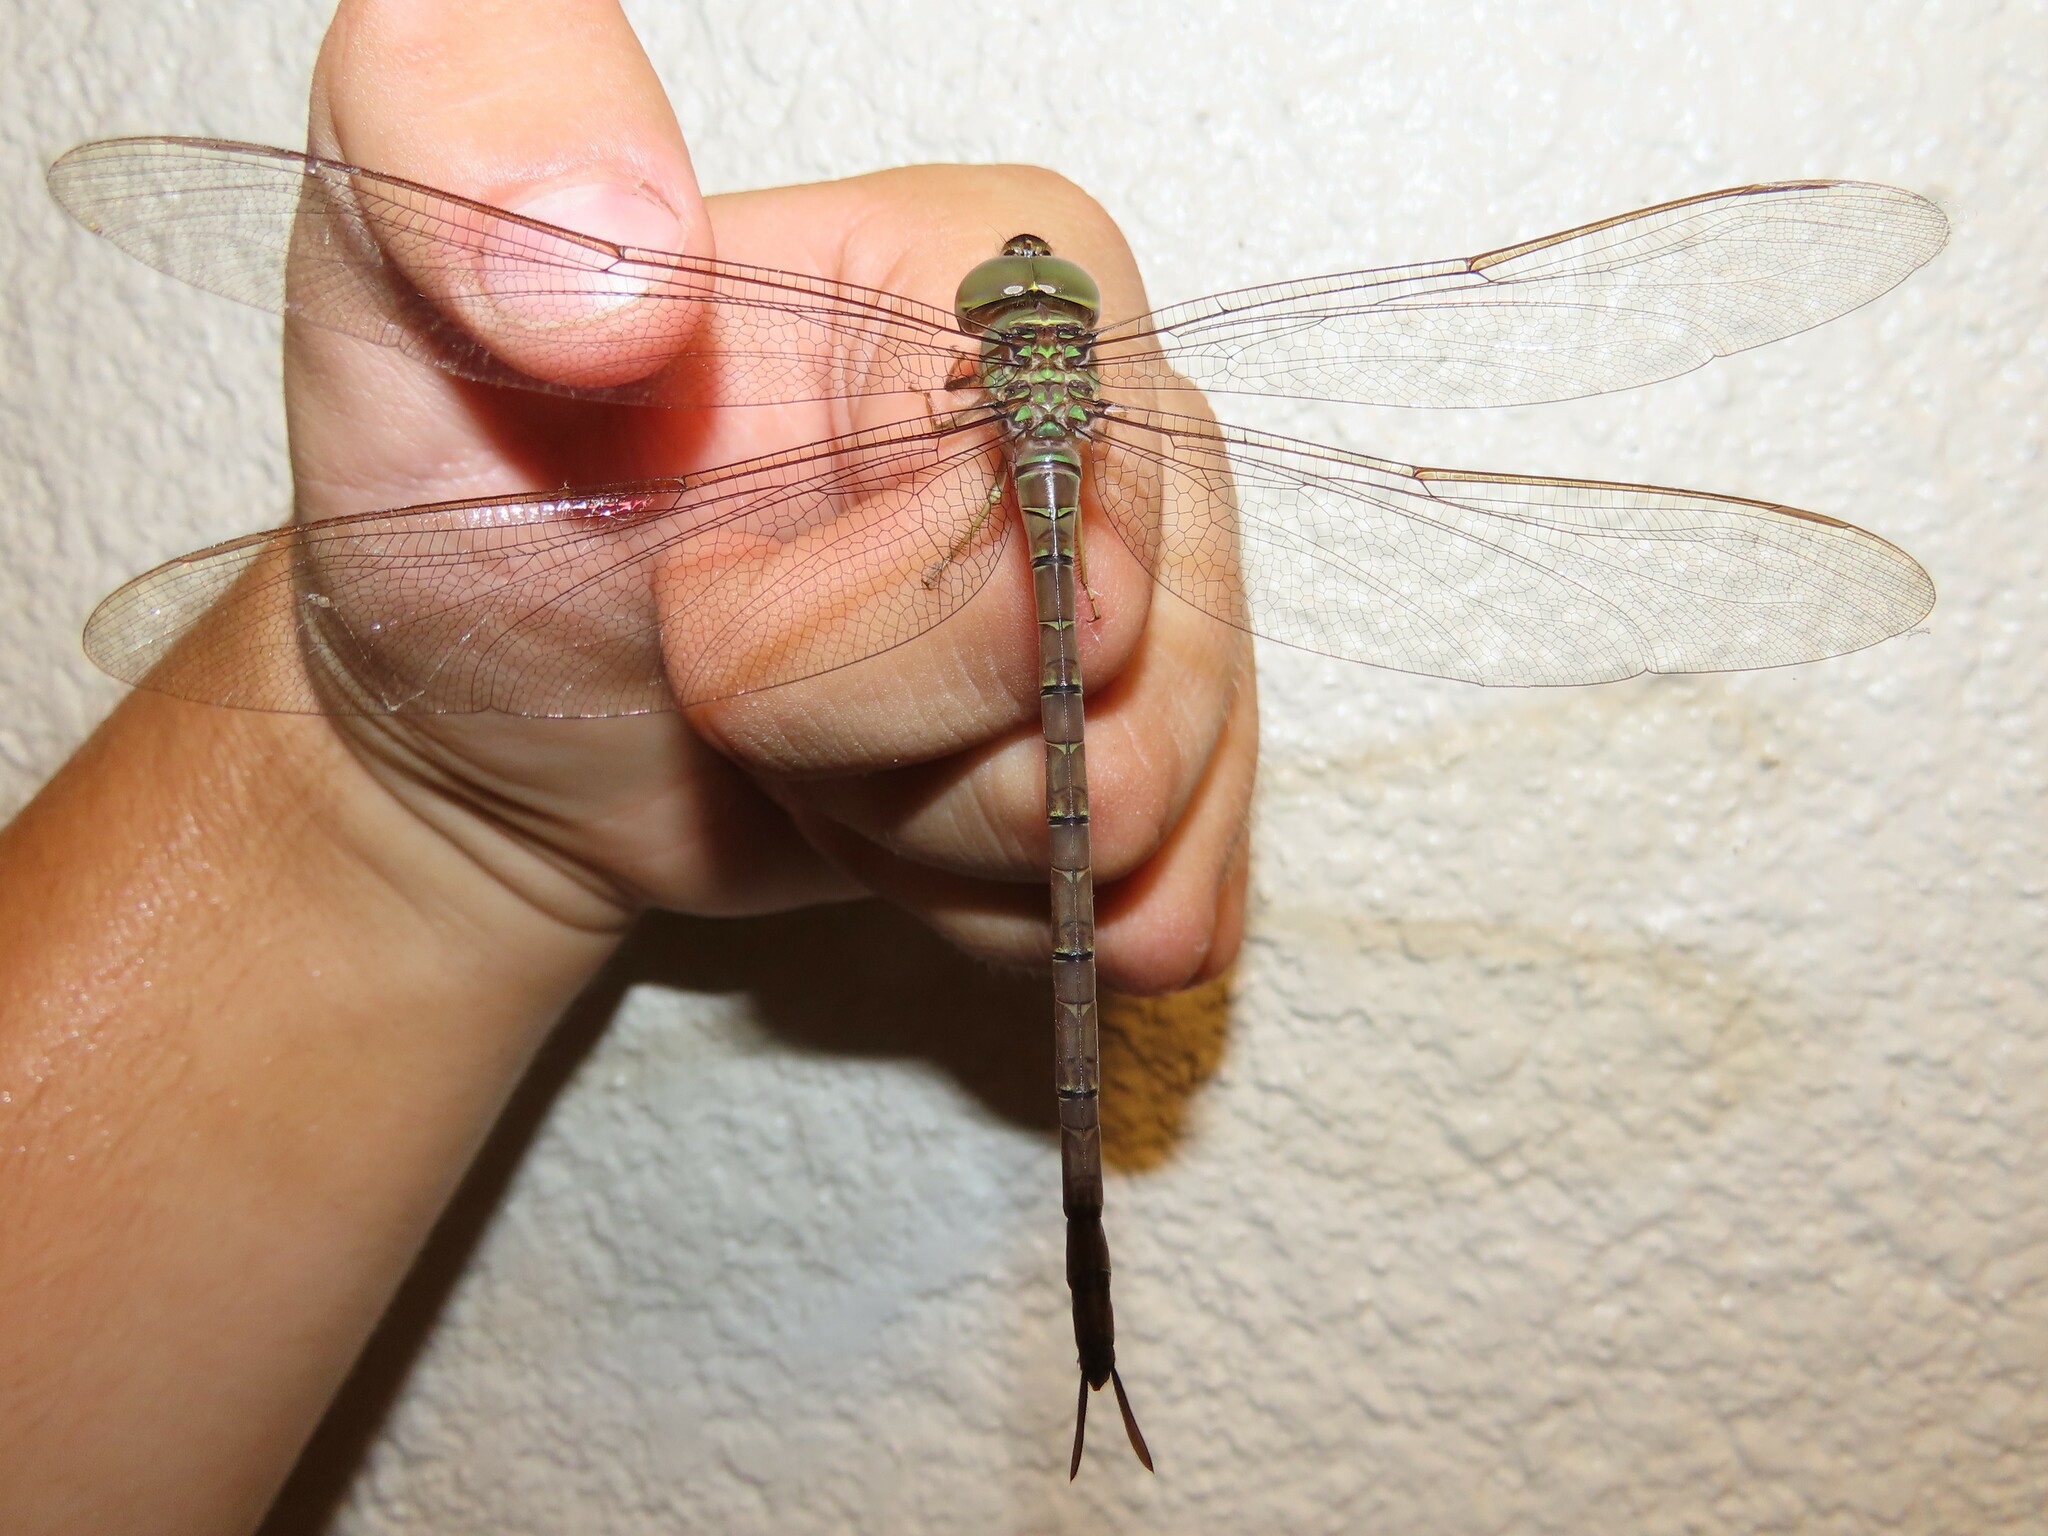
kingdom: Animalia
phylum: Arthropoda
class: Insecta
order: Odonata
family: Aeshnidae
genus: Gynacantha
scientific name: Gynacantha nervosa
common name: Twilight darner
